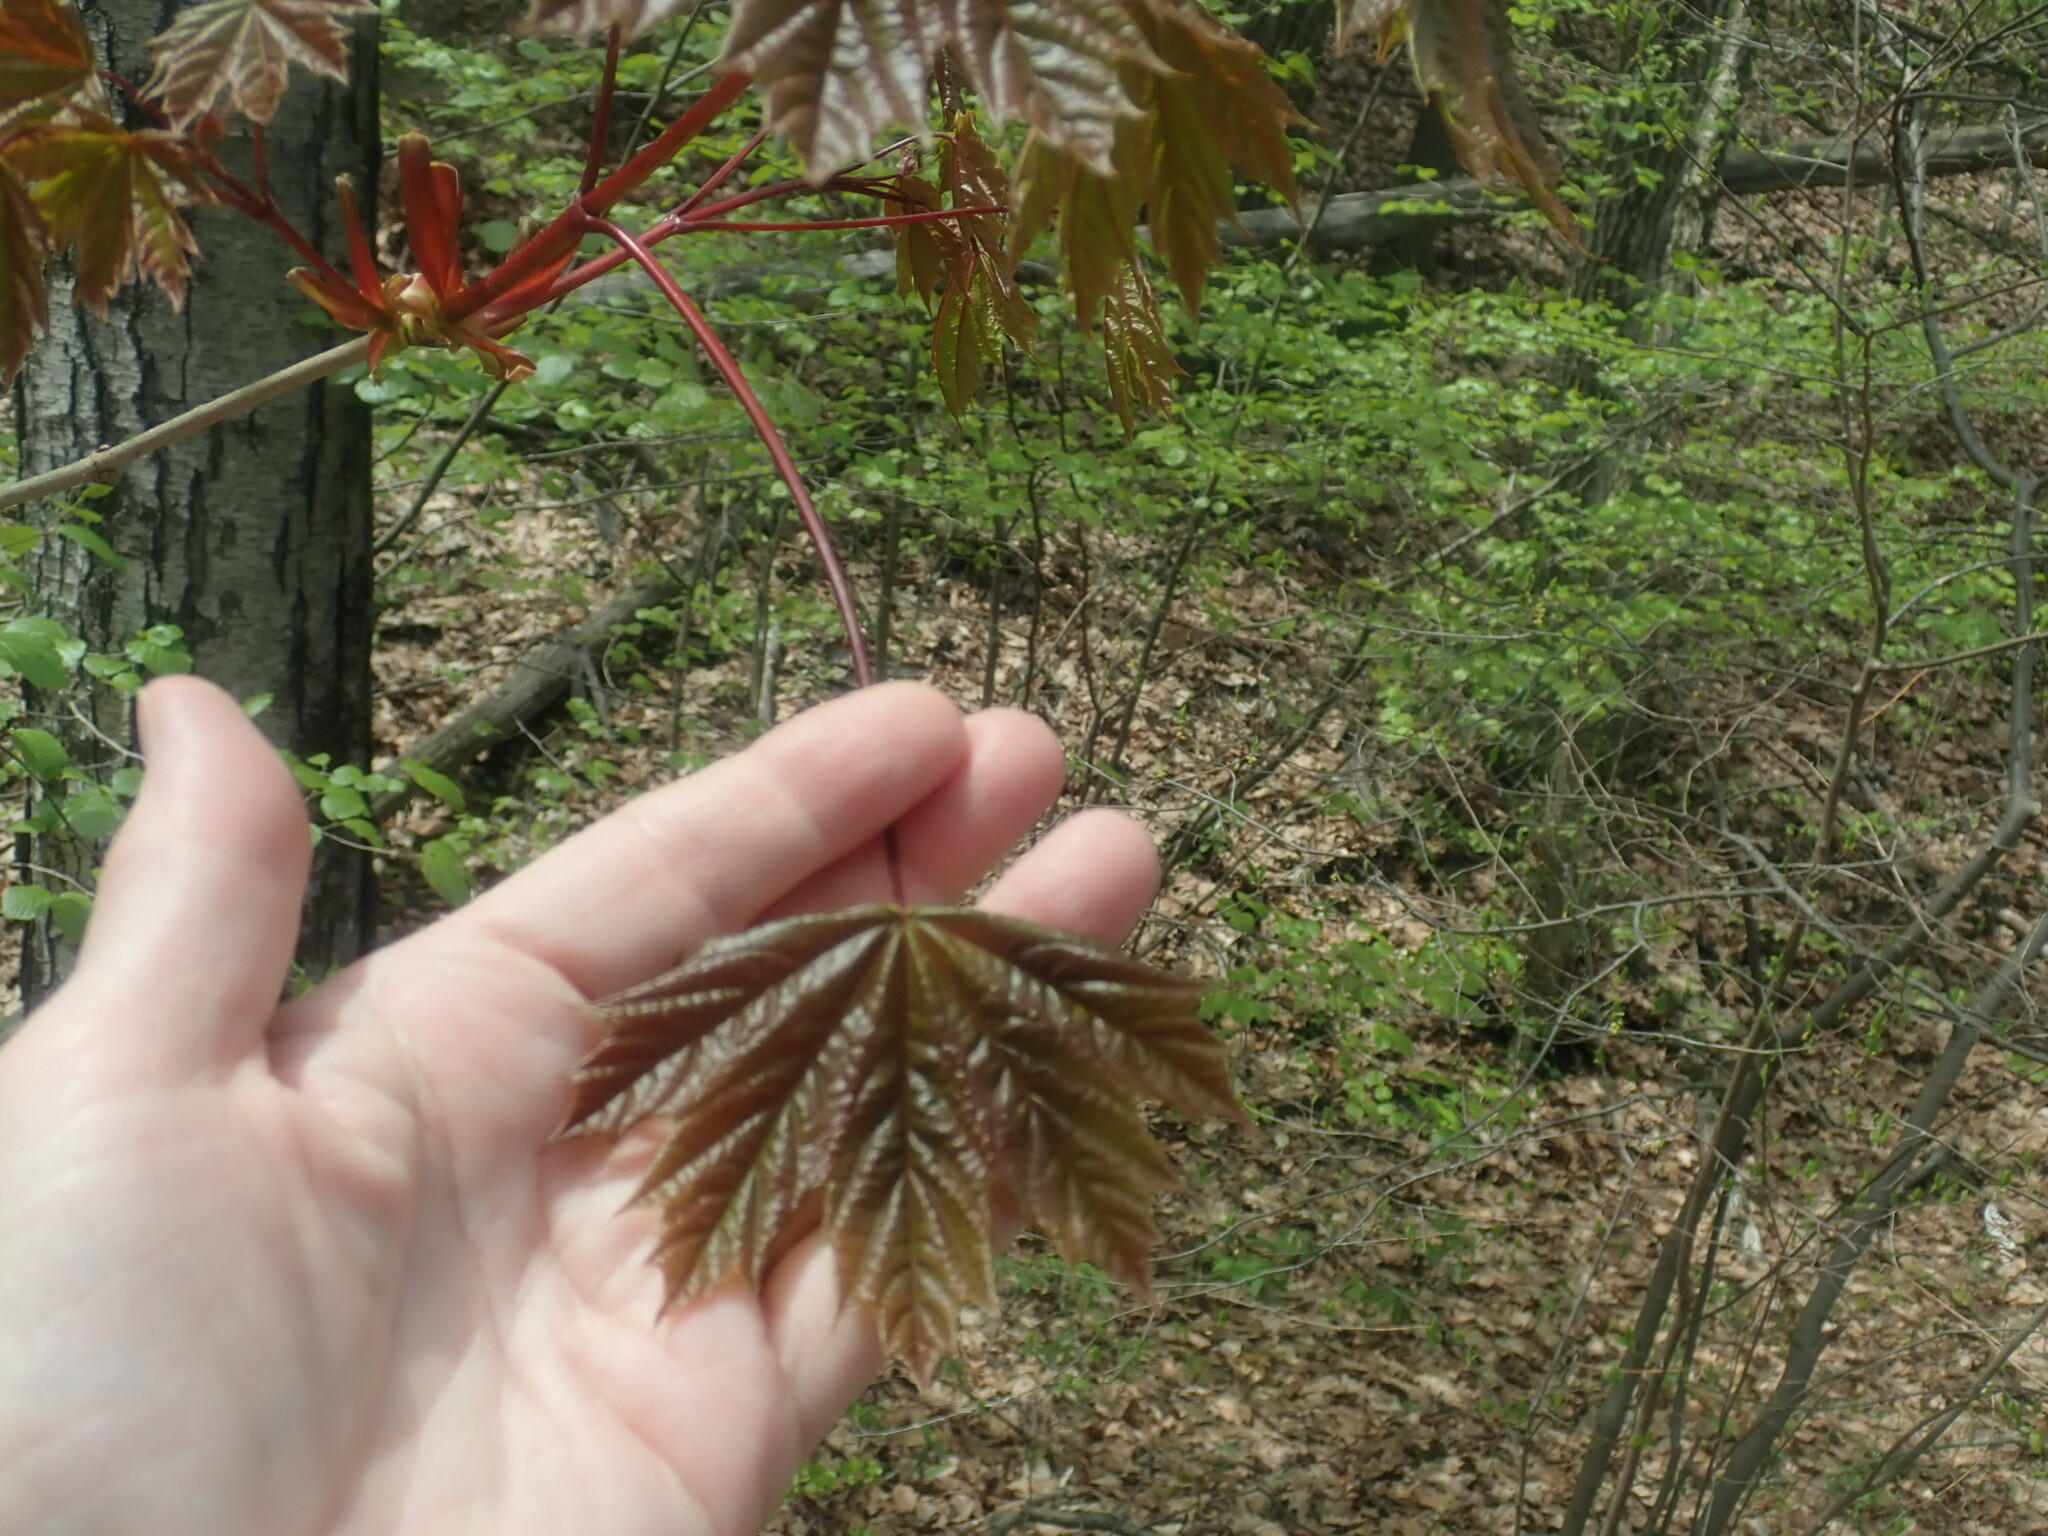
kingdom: Plantae
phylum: Tracheophyta
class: Magnoliopsida
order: Sapindales
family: Sapindaceae
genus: Acer
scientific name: Acer platanoides
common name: Norway maple
